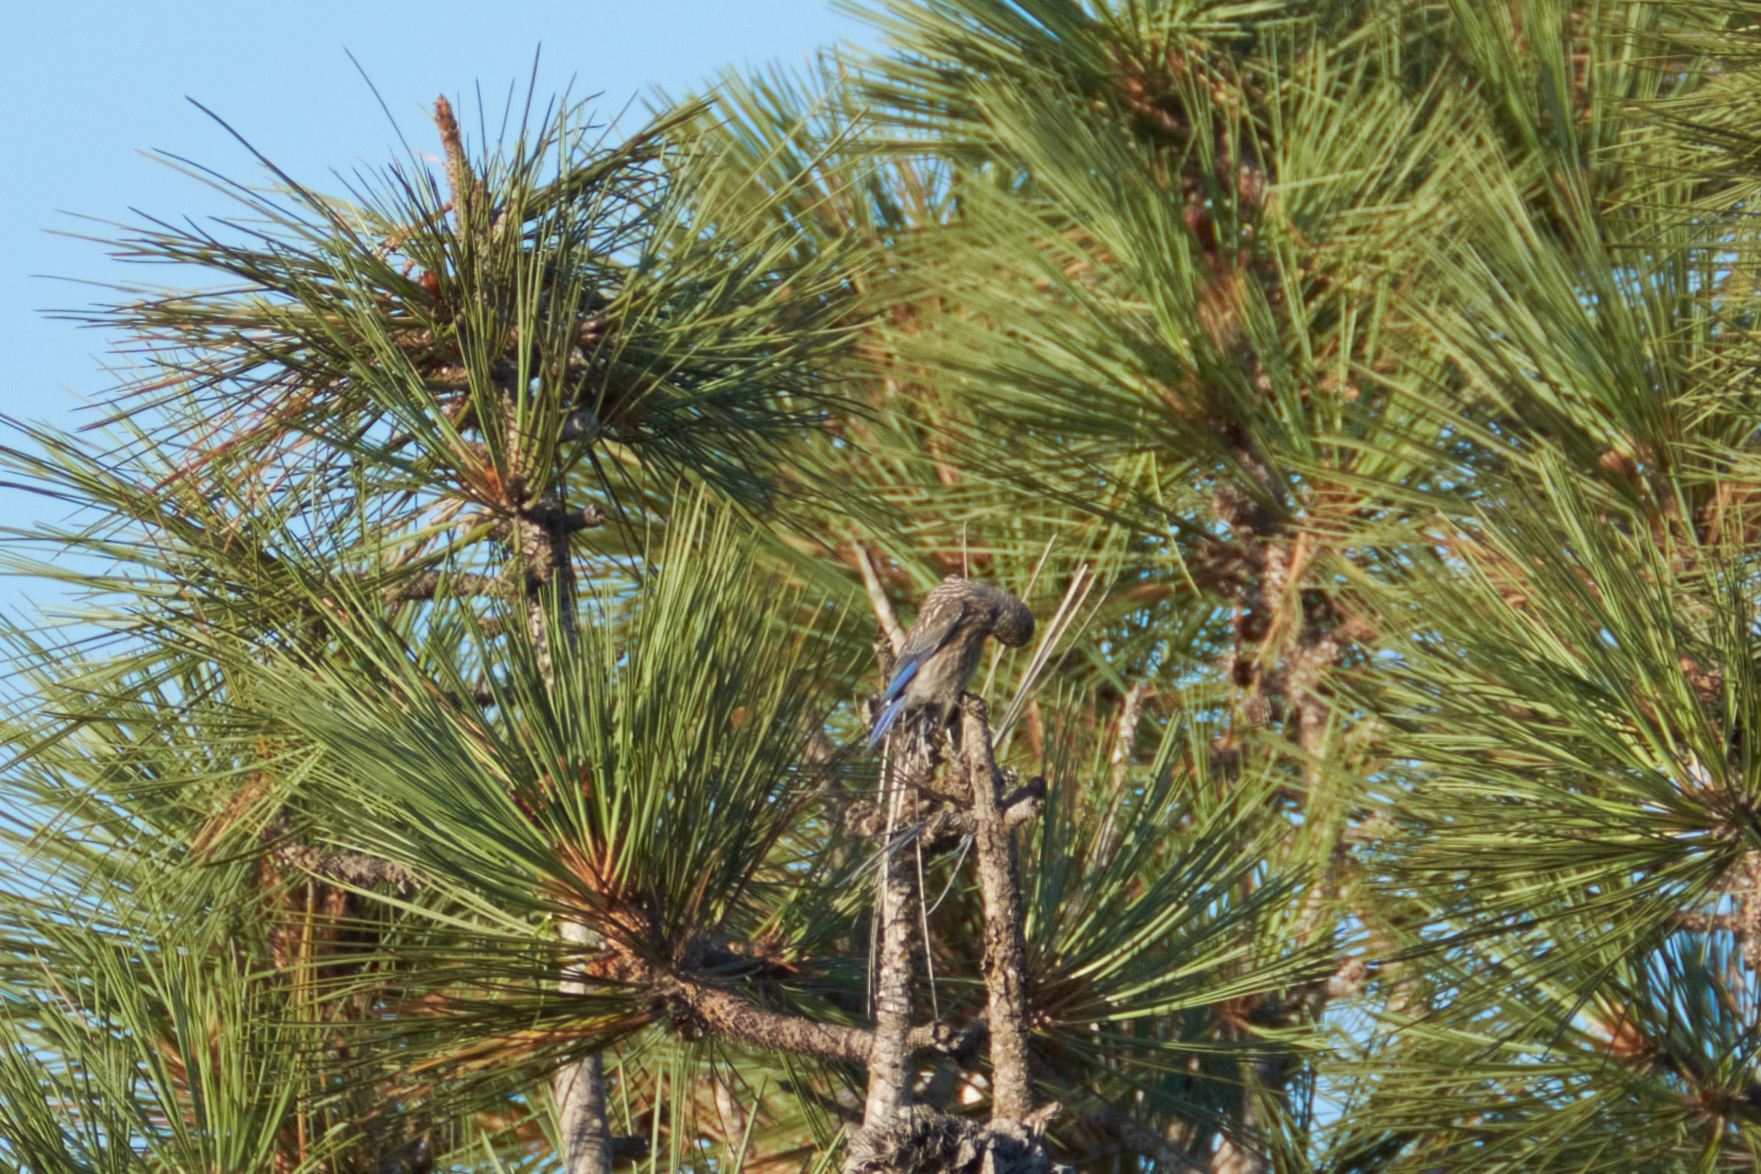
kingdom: Animalia
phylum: Chordata
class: Aves
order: Passeriformes
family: Turdidae
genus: Sialia
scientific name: Sialia mexicana
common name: Western bluebird
